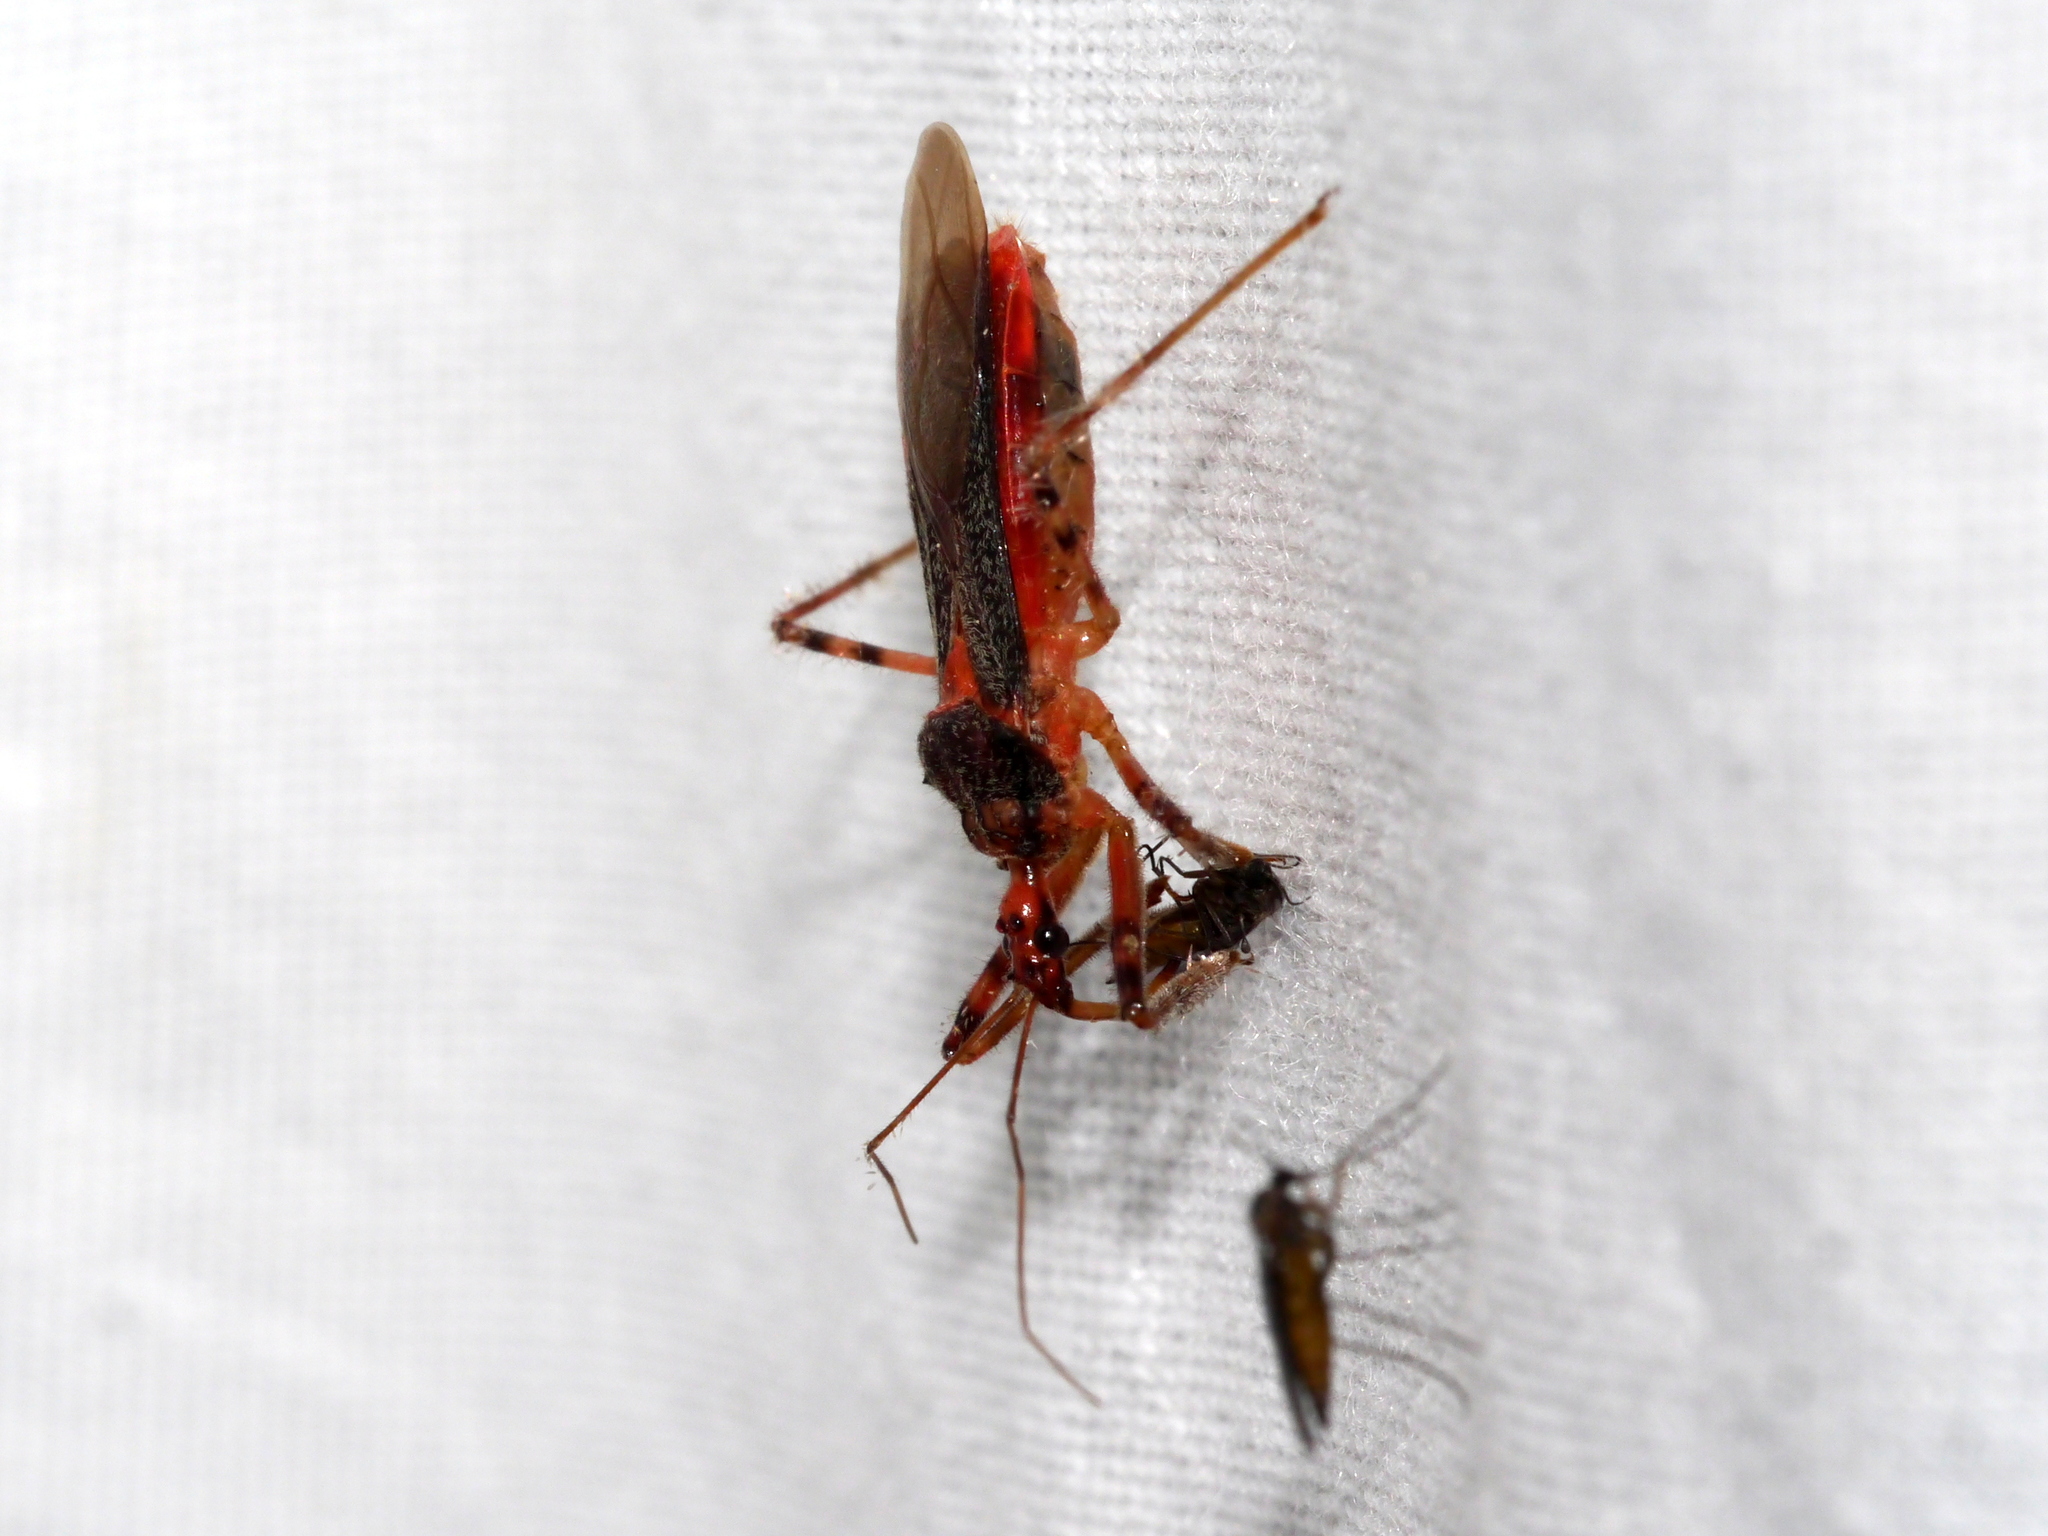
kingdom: Animalia
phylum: Arthropoda
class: Insecta
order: Hemiptera
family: Reduviidae
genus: Castolus
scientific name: Castolus ferox
